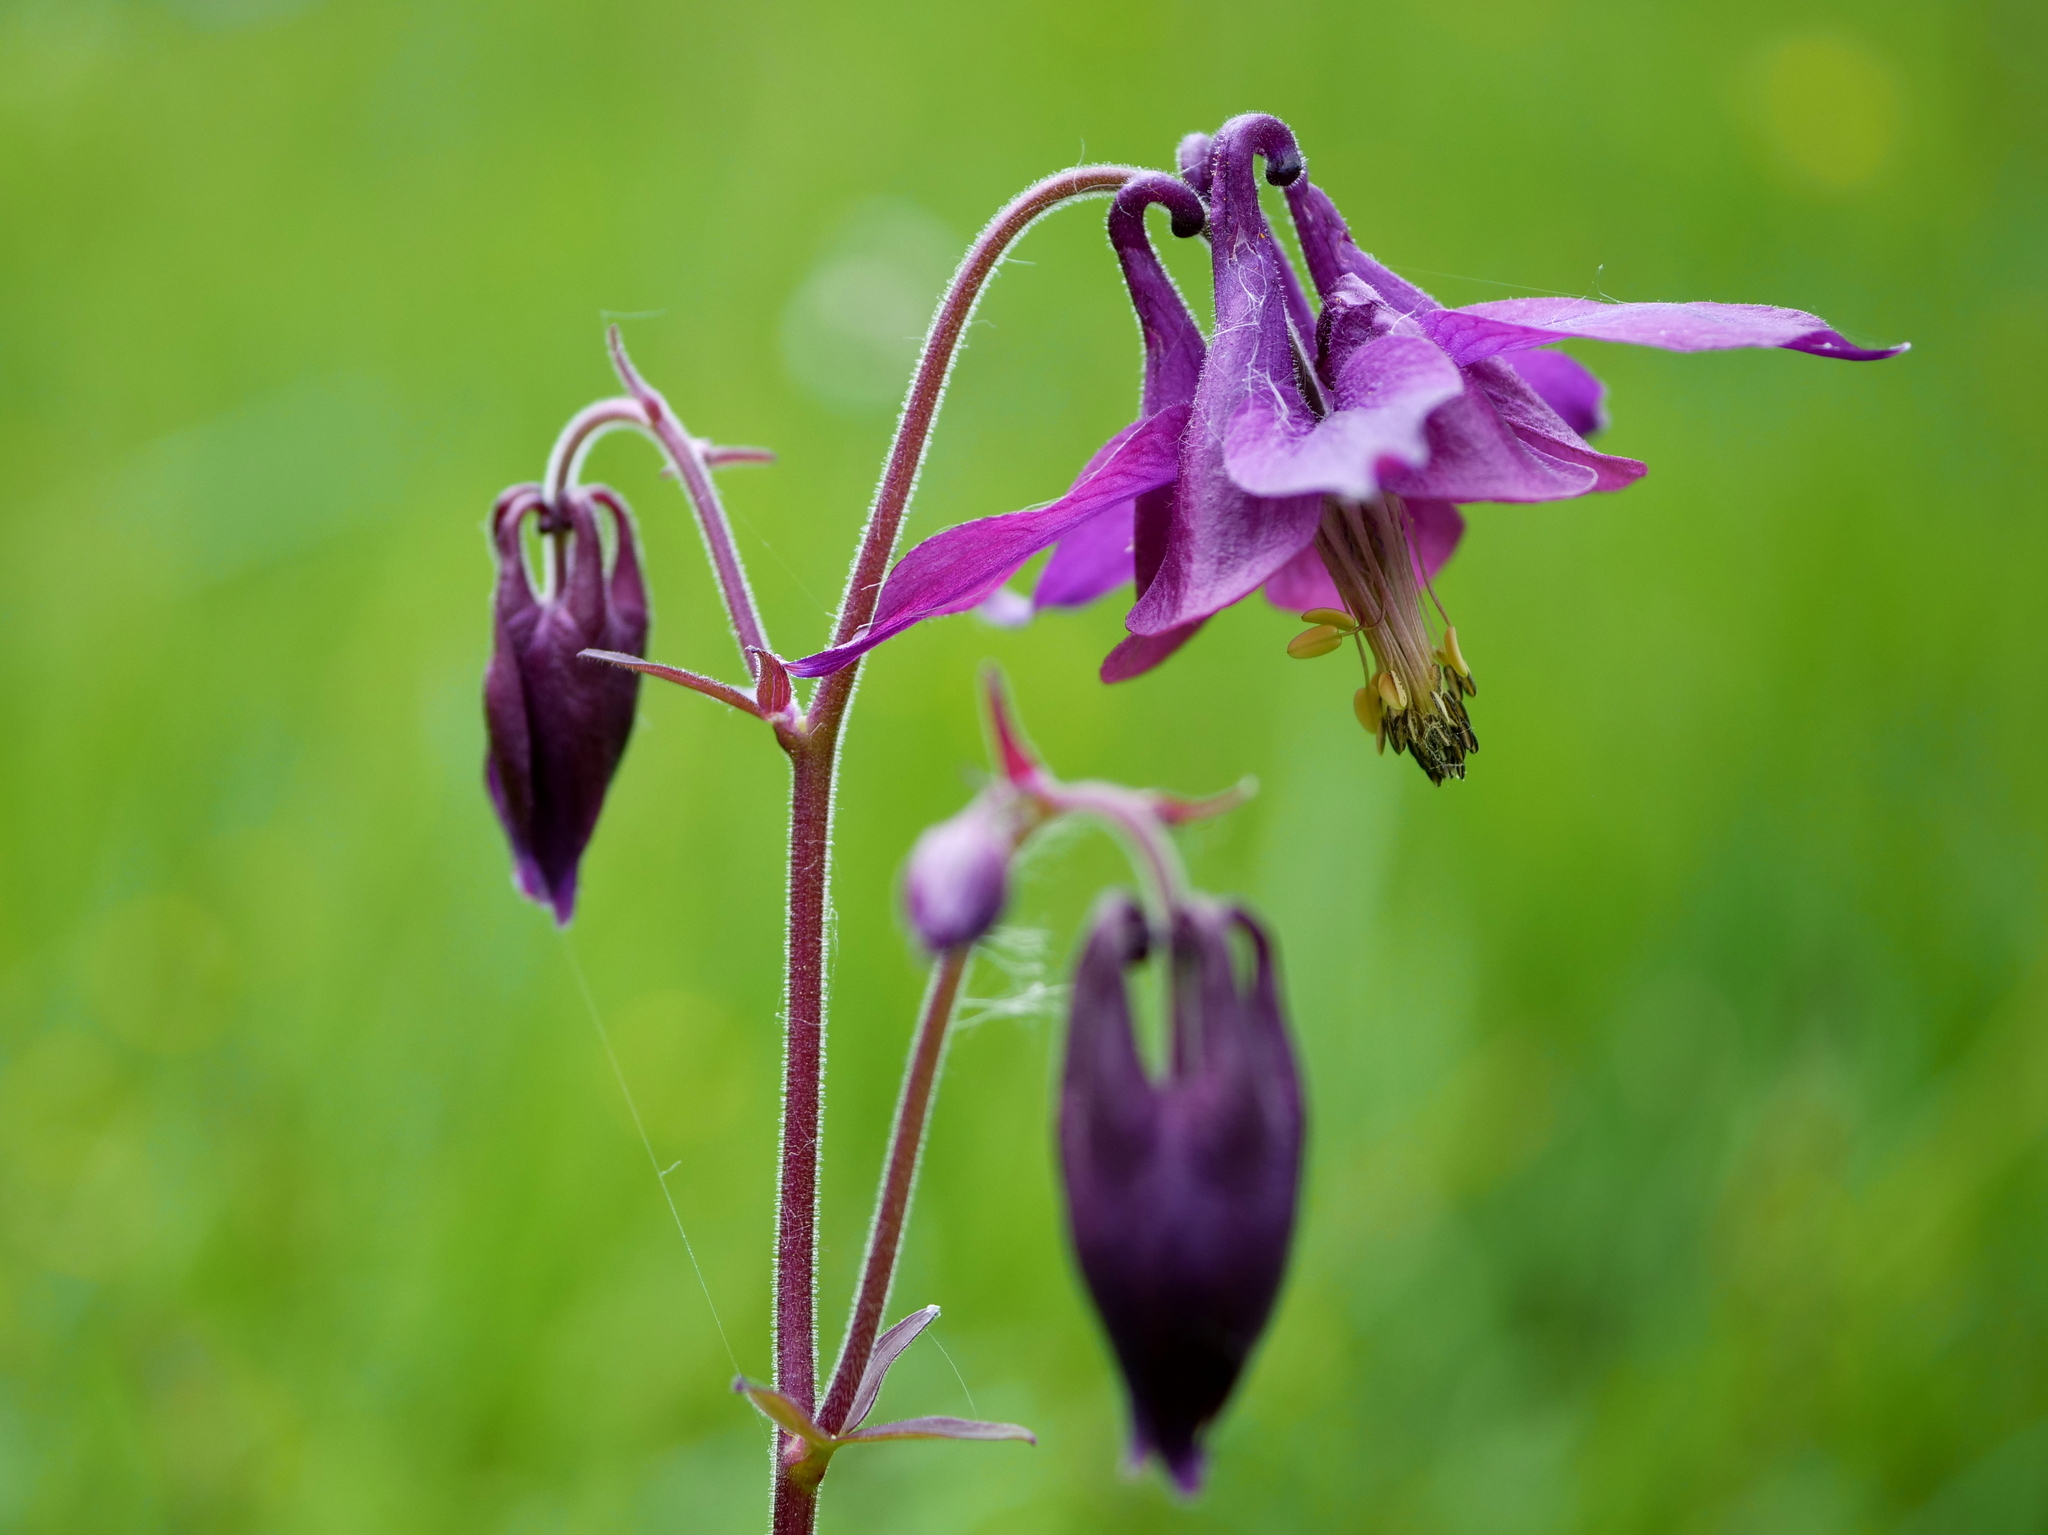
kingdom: Plantae
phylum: Tracheophyta
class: Magnoliopsida
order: Ranunculales
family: Ranunculaceae
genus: Aquilegia
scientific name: Aquilegia atrata
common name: Dark columbine
